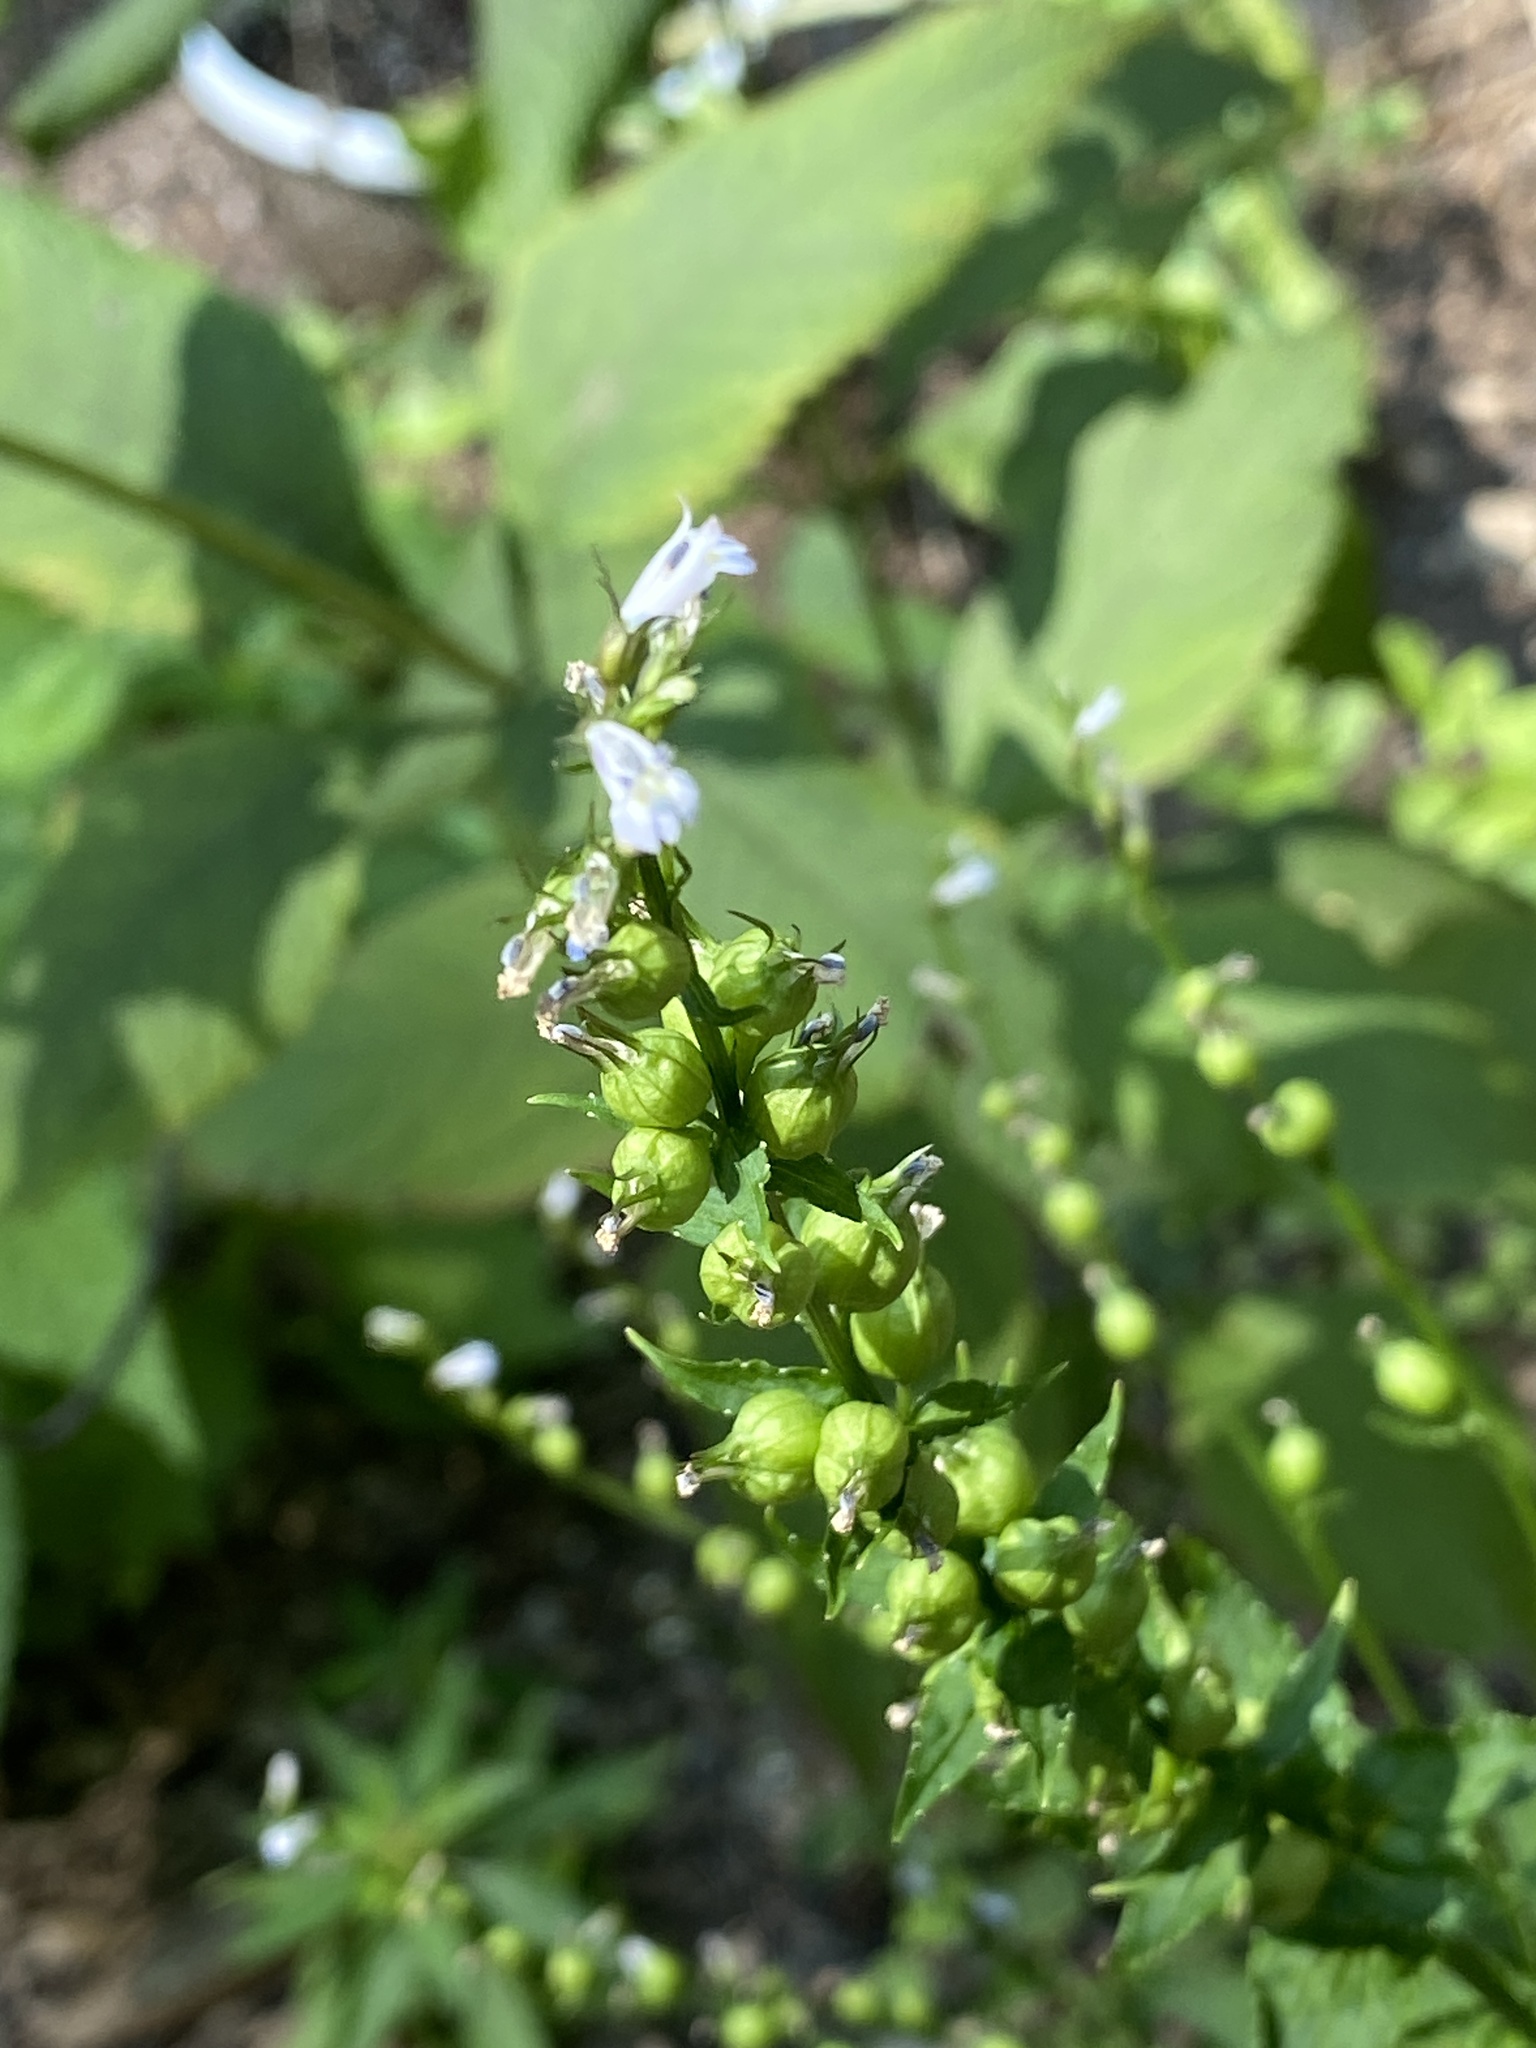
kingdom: Plantae
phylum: Tracheophyta
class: Magnoliopsida
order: Asterales
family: Campanulaceae
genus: Lobelia
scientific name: Lobelia inflata
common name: Indian tobacco
